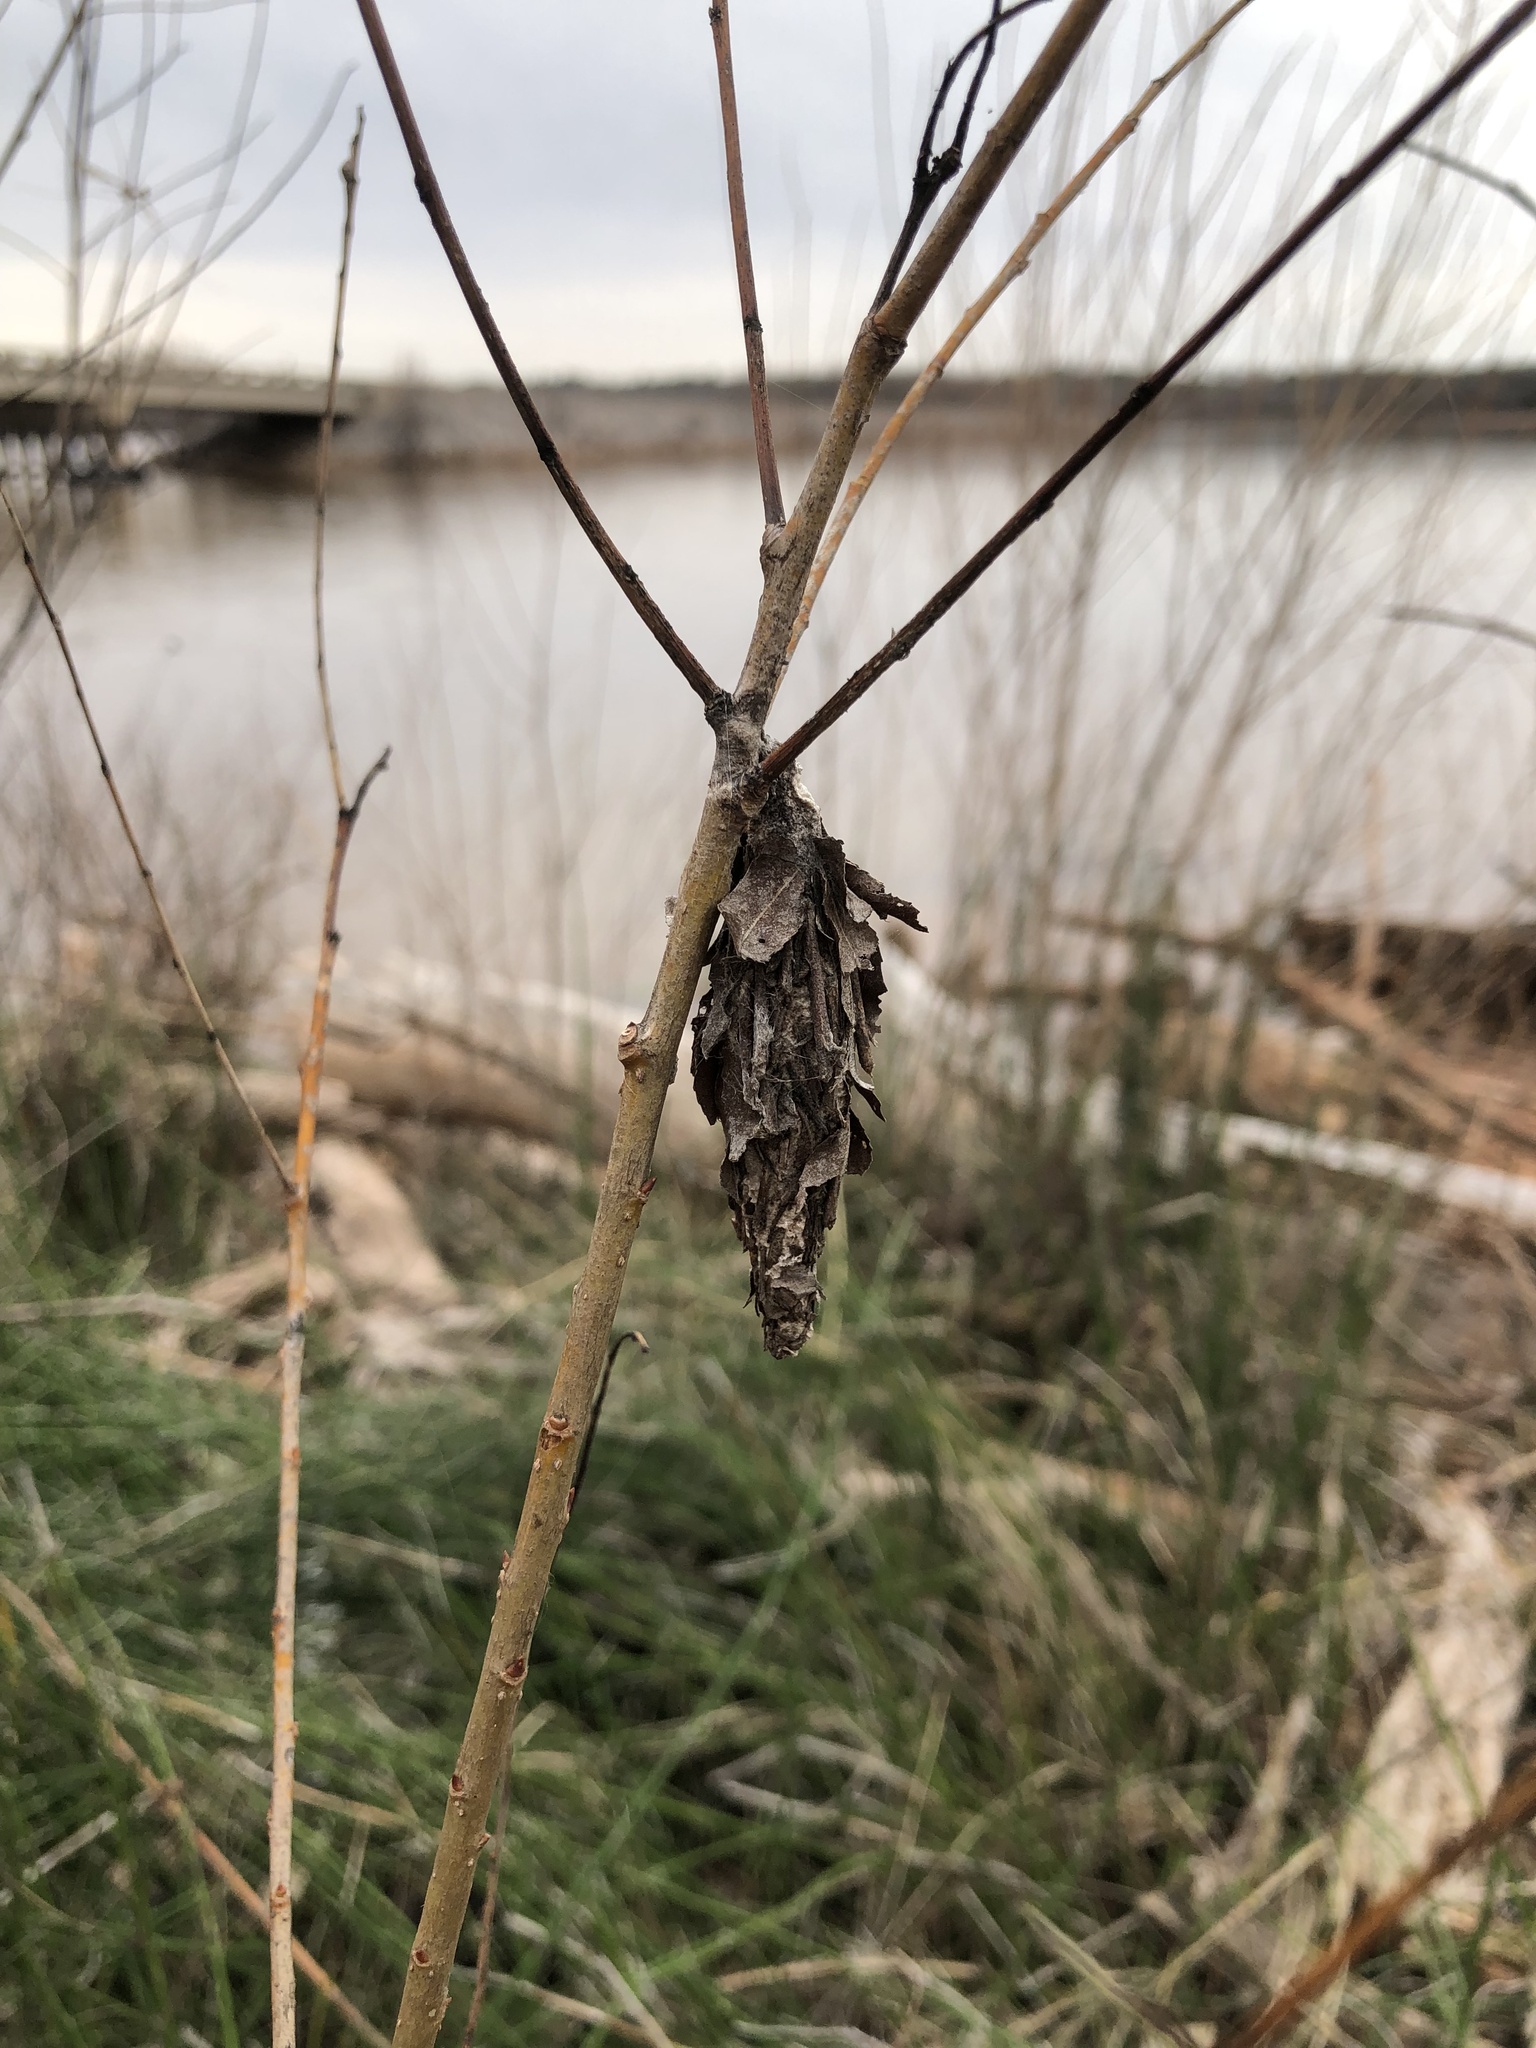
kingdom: Animalia
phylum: Arthropoda
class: Insecta
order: Lepidoptera
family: Psychidae
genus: Thyridopteryx
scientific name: Thyridopteryx ephemeraeformis
